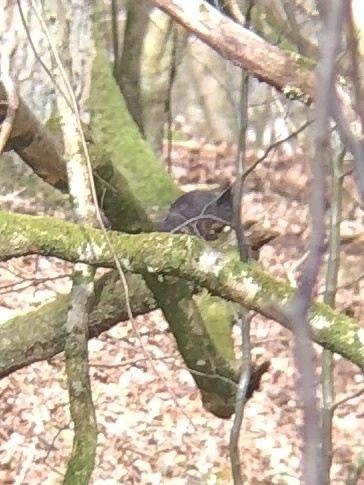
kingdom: Animalia
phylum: Chordata
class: Mammalia
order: Rodentia
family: Sciuridae
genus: Sciurus
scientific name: Sciurus vulgaris
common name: Eurasian red squirrel
